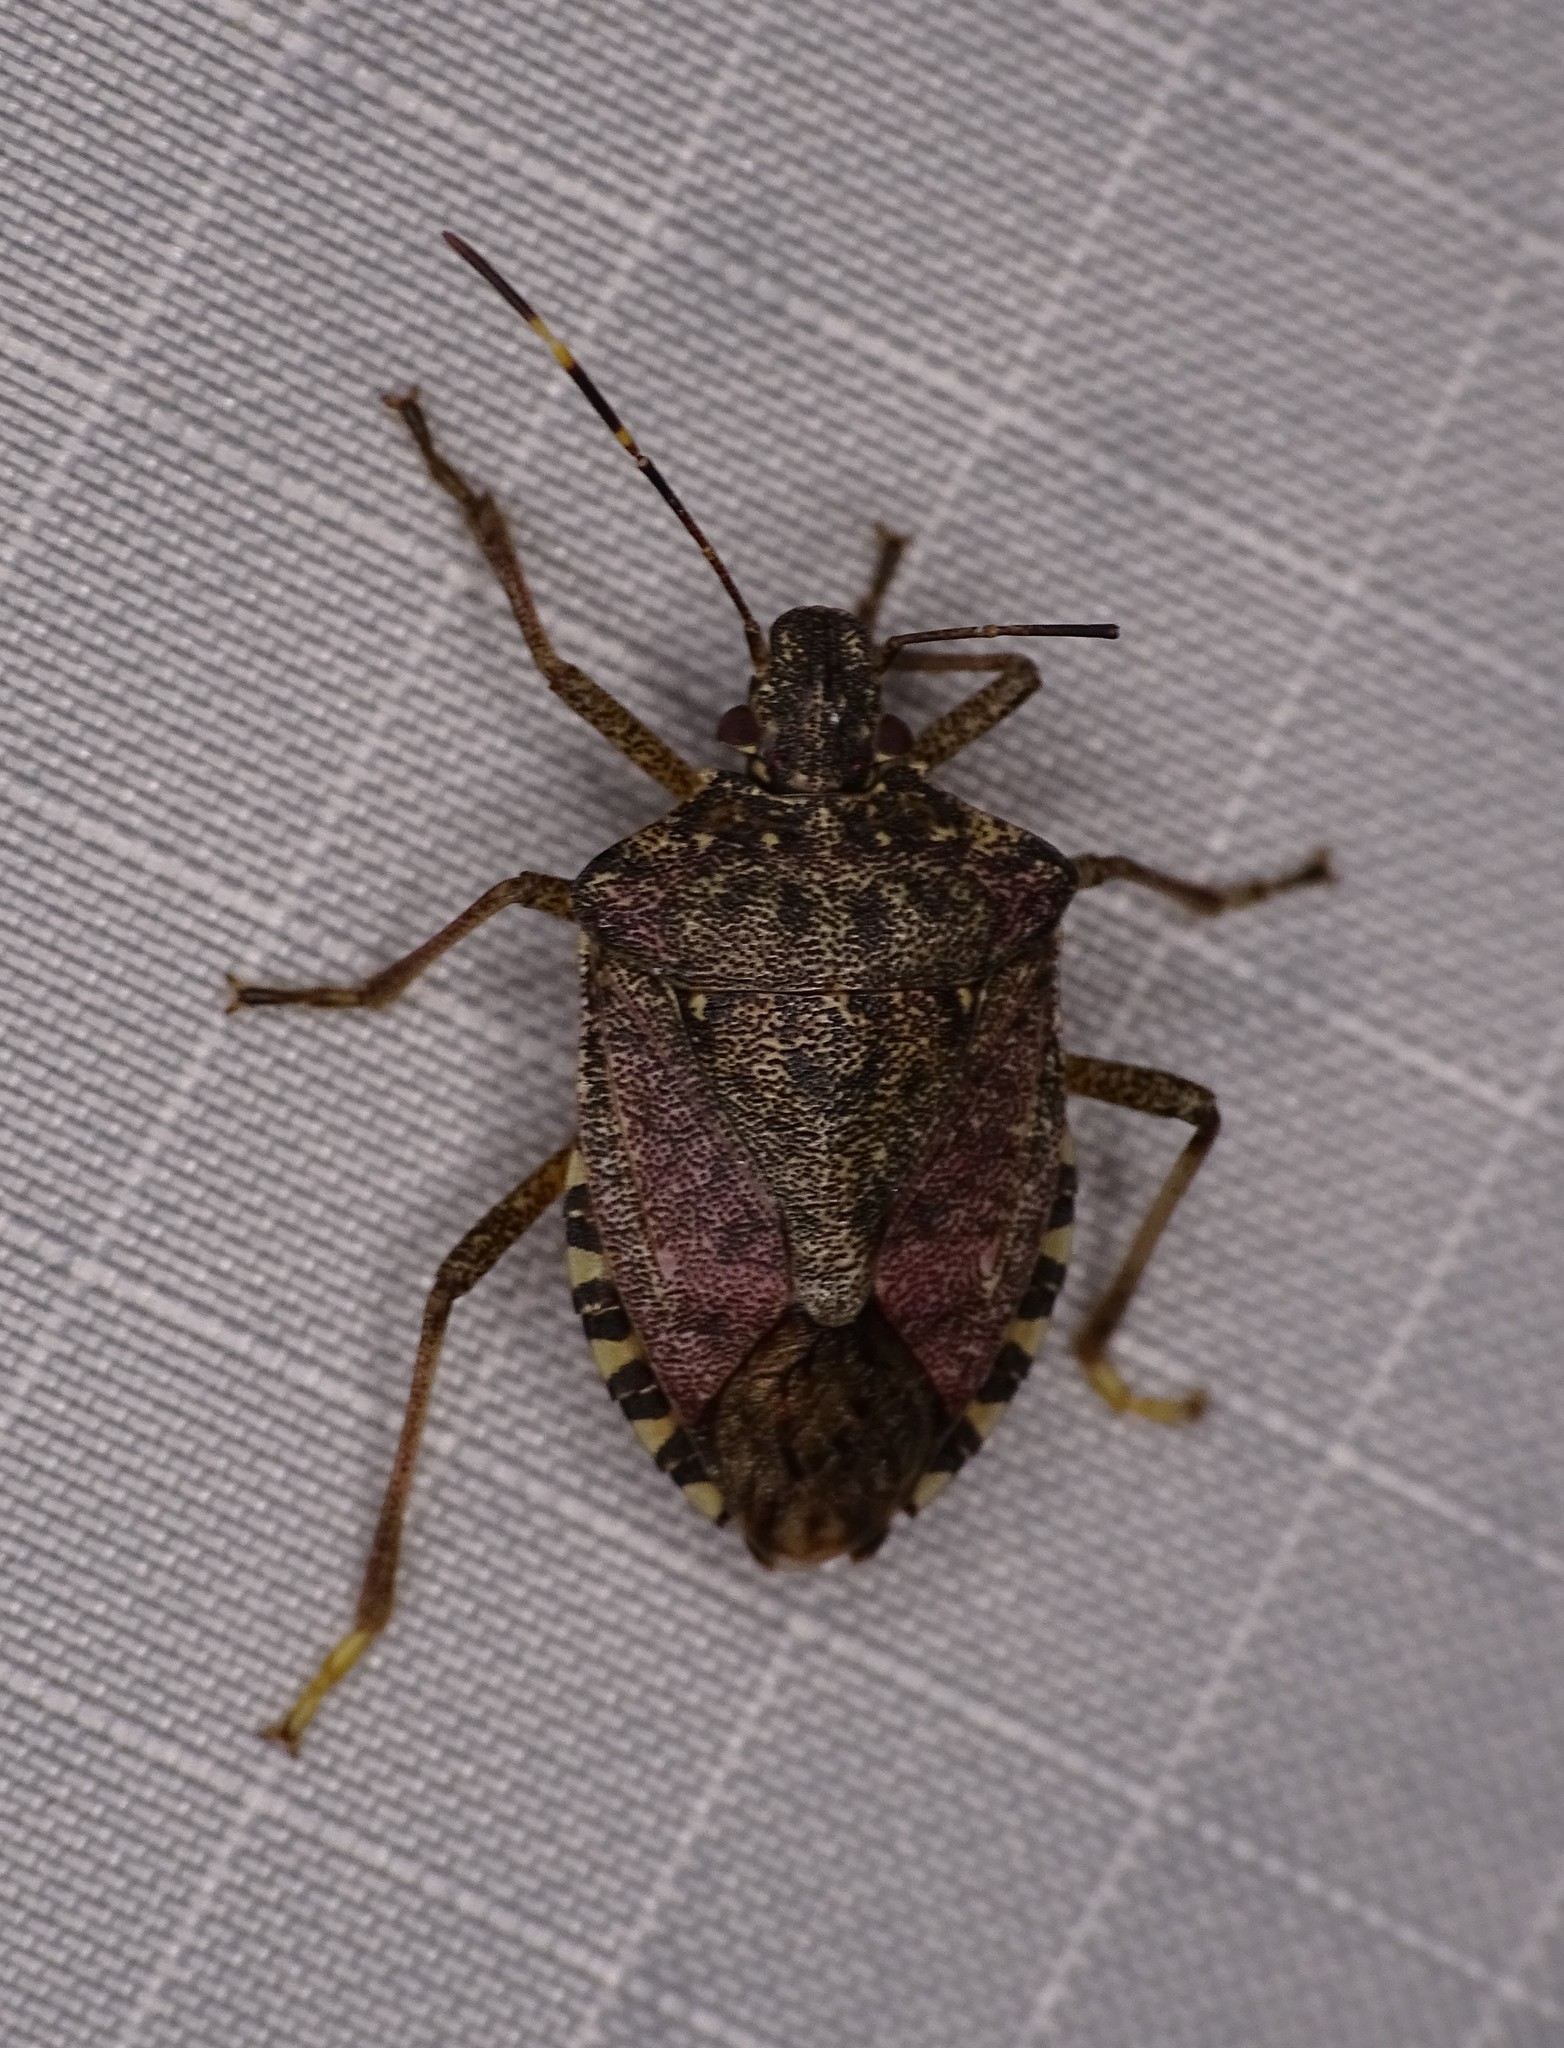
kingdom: Animalia
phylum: Arthropoda
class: Insecta
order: Hemiptera
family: Pentatomidae
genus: Halyomorpha
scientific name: Halyomorpha halys
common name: Brown marmorated stink bug
